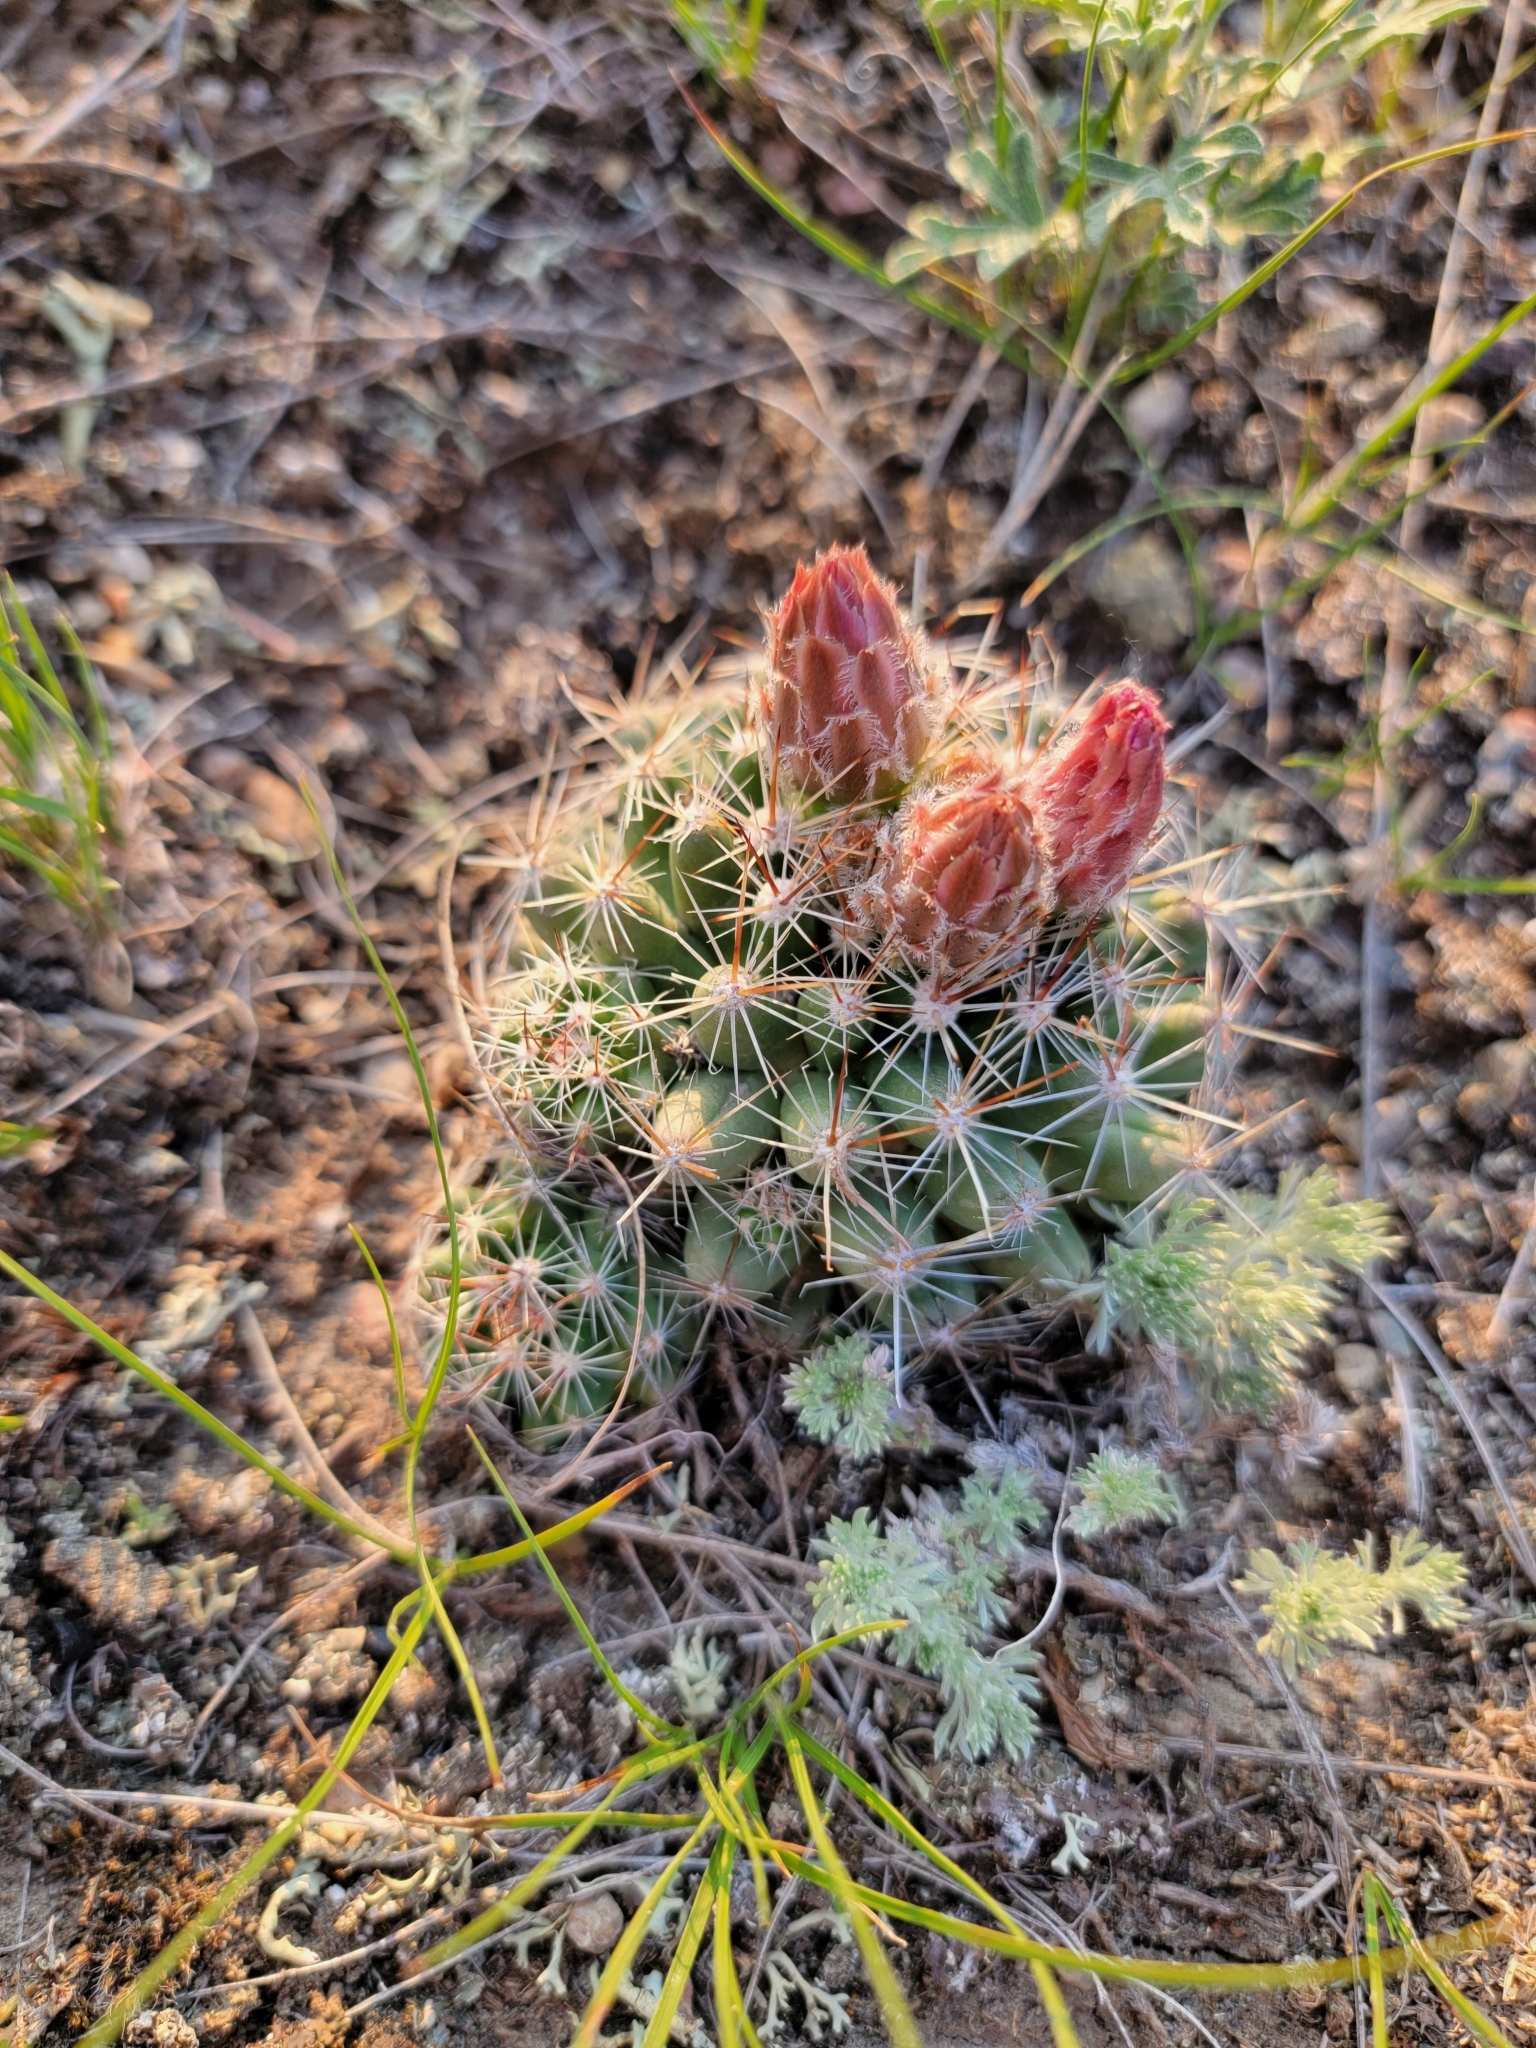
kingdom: Plantae
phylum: Tracheophyta
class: Magnoliopsida
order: Caryophyllales
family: Cactaceae
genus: Pelecyphora
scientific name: Pelecyphora vivipara
